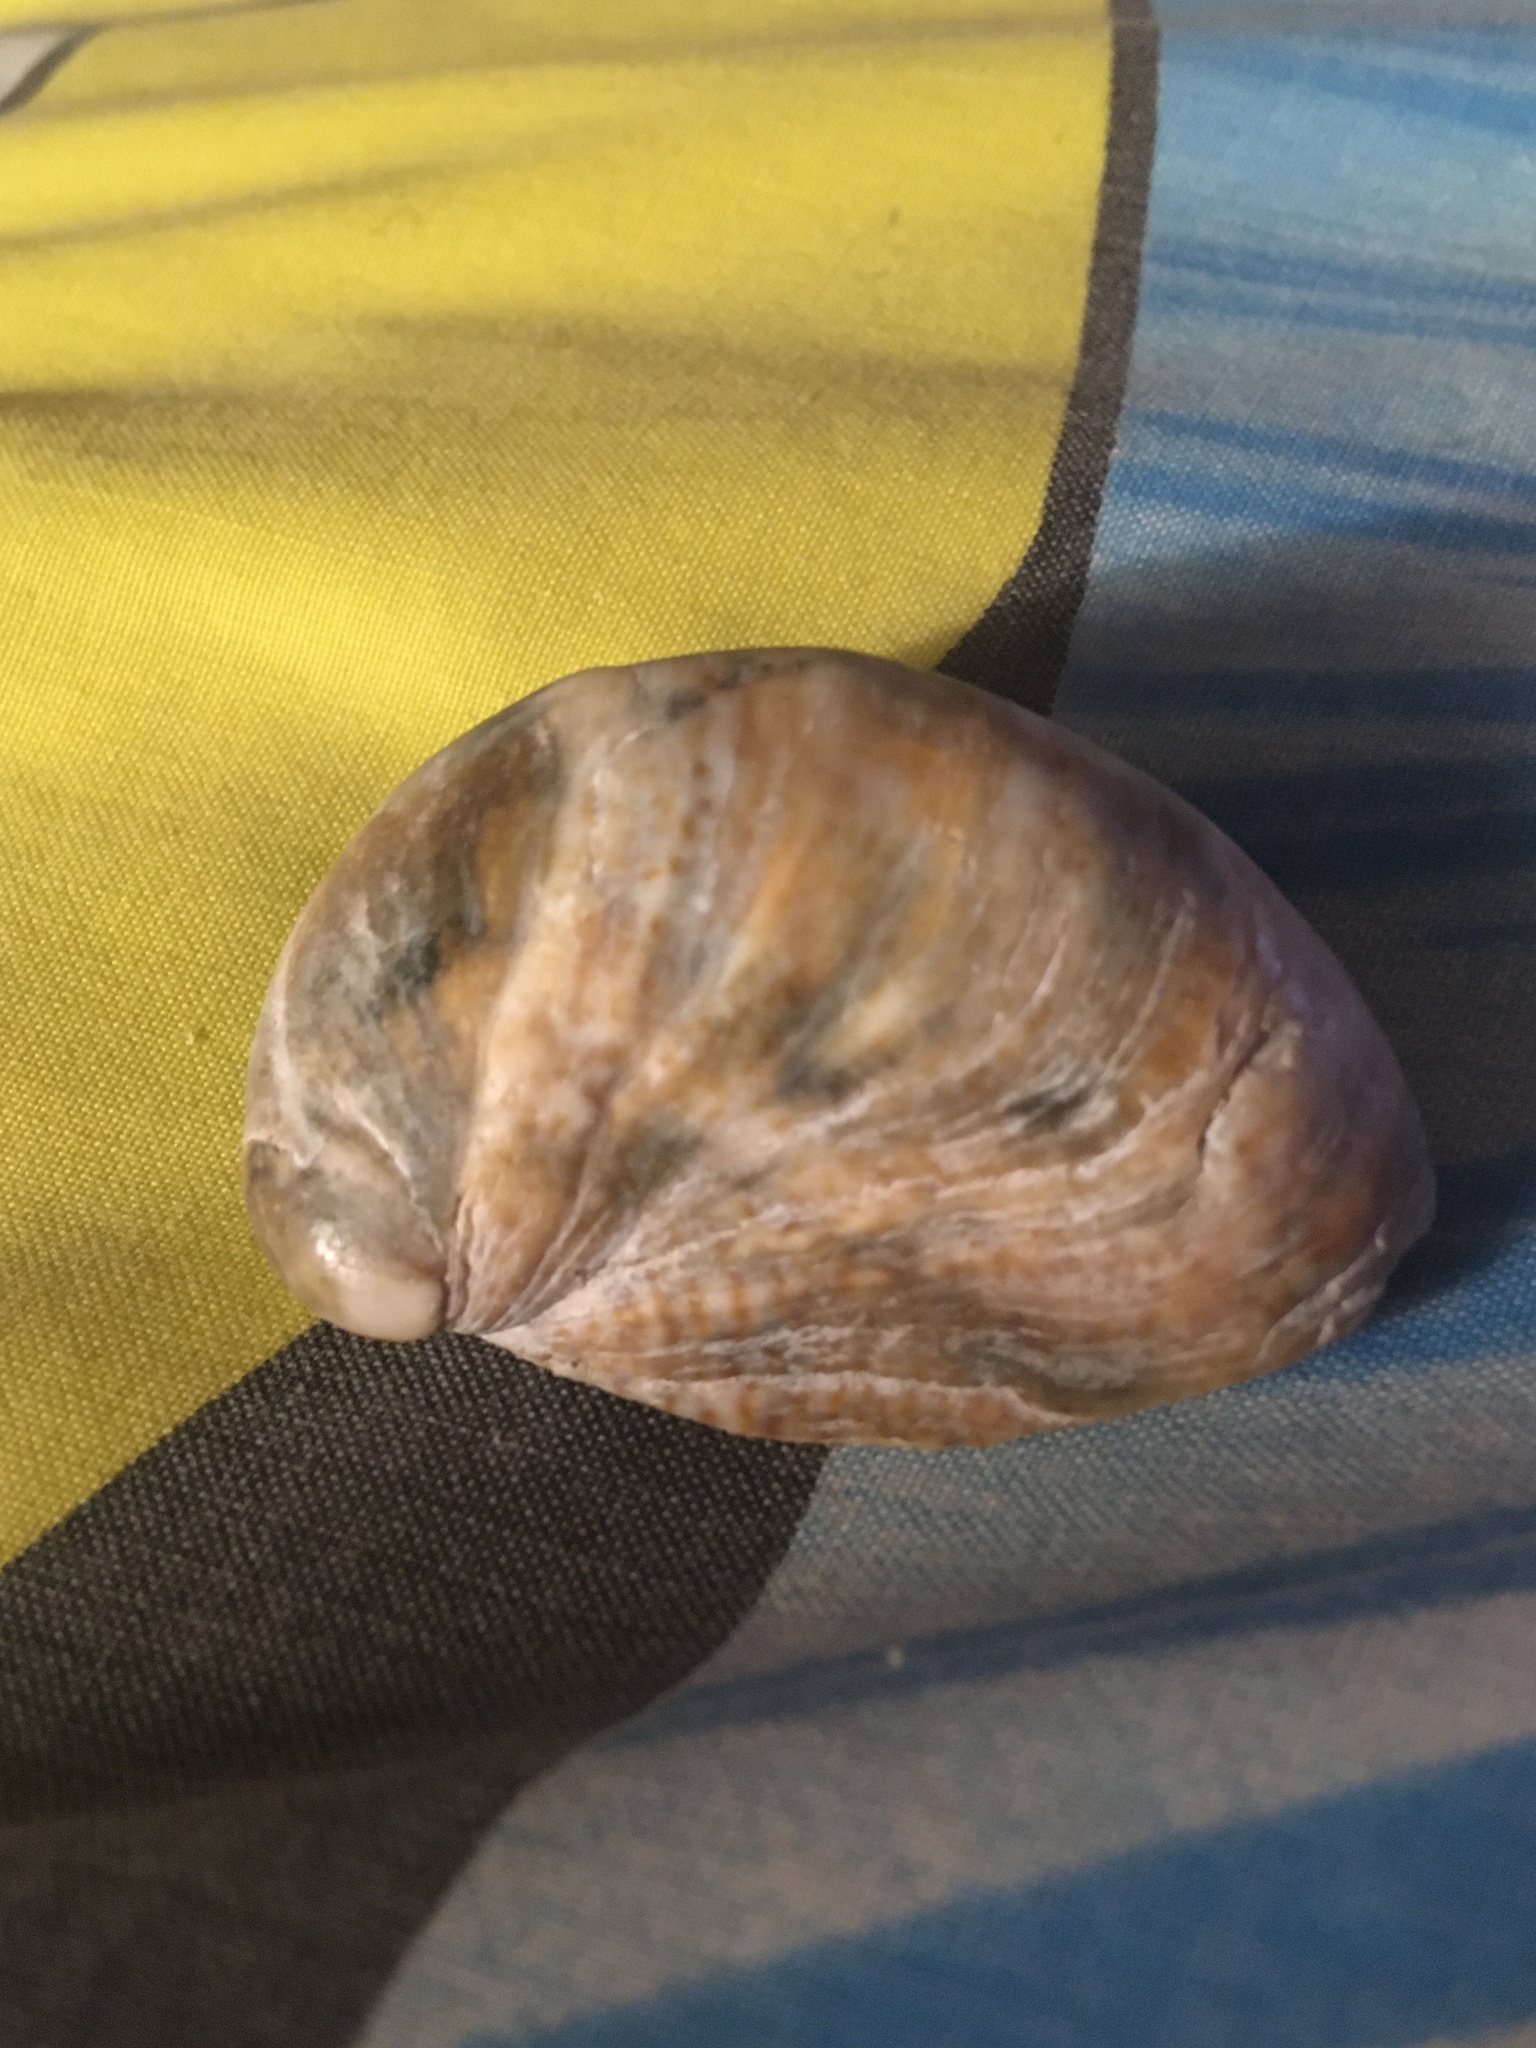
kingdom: Animalia
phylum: Mollusca
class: Gastropoda
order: Littorinimorpha
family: Calyptraeidae
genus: Crepidula
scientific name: Crepidula fornicata
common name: Slipper limpet
